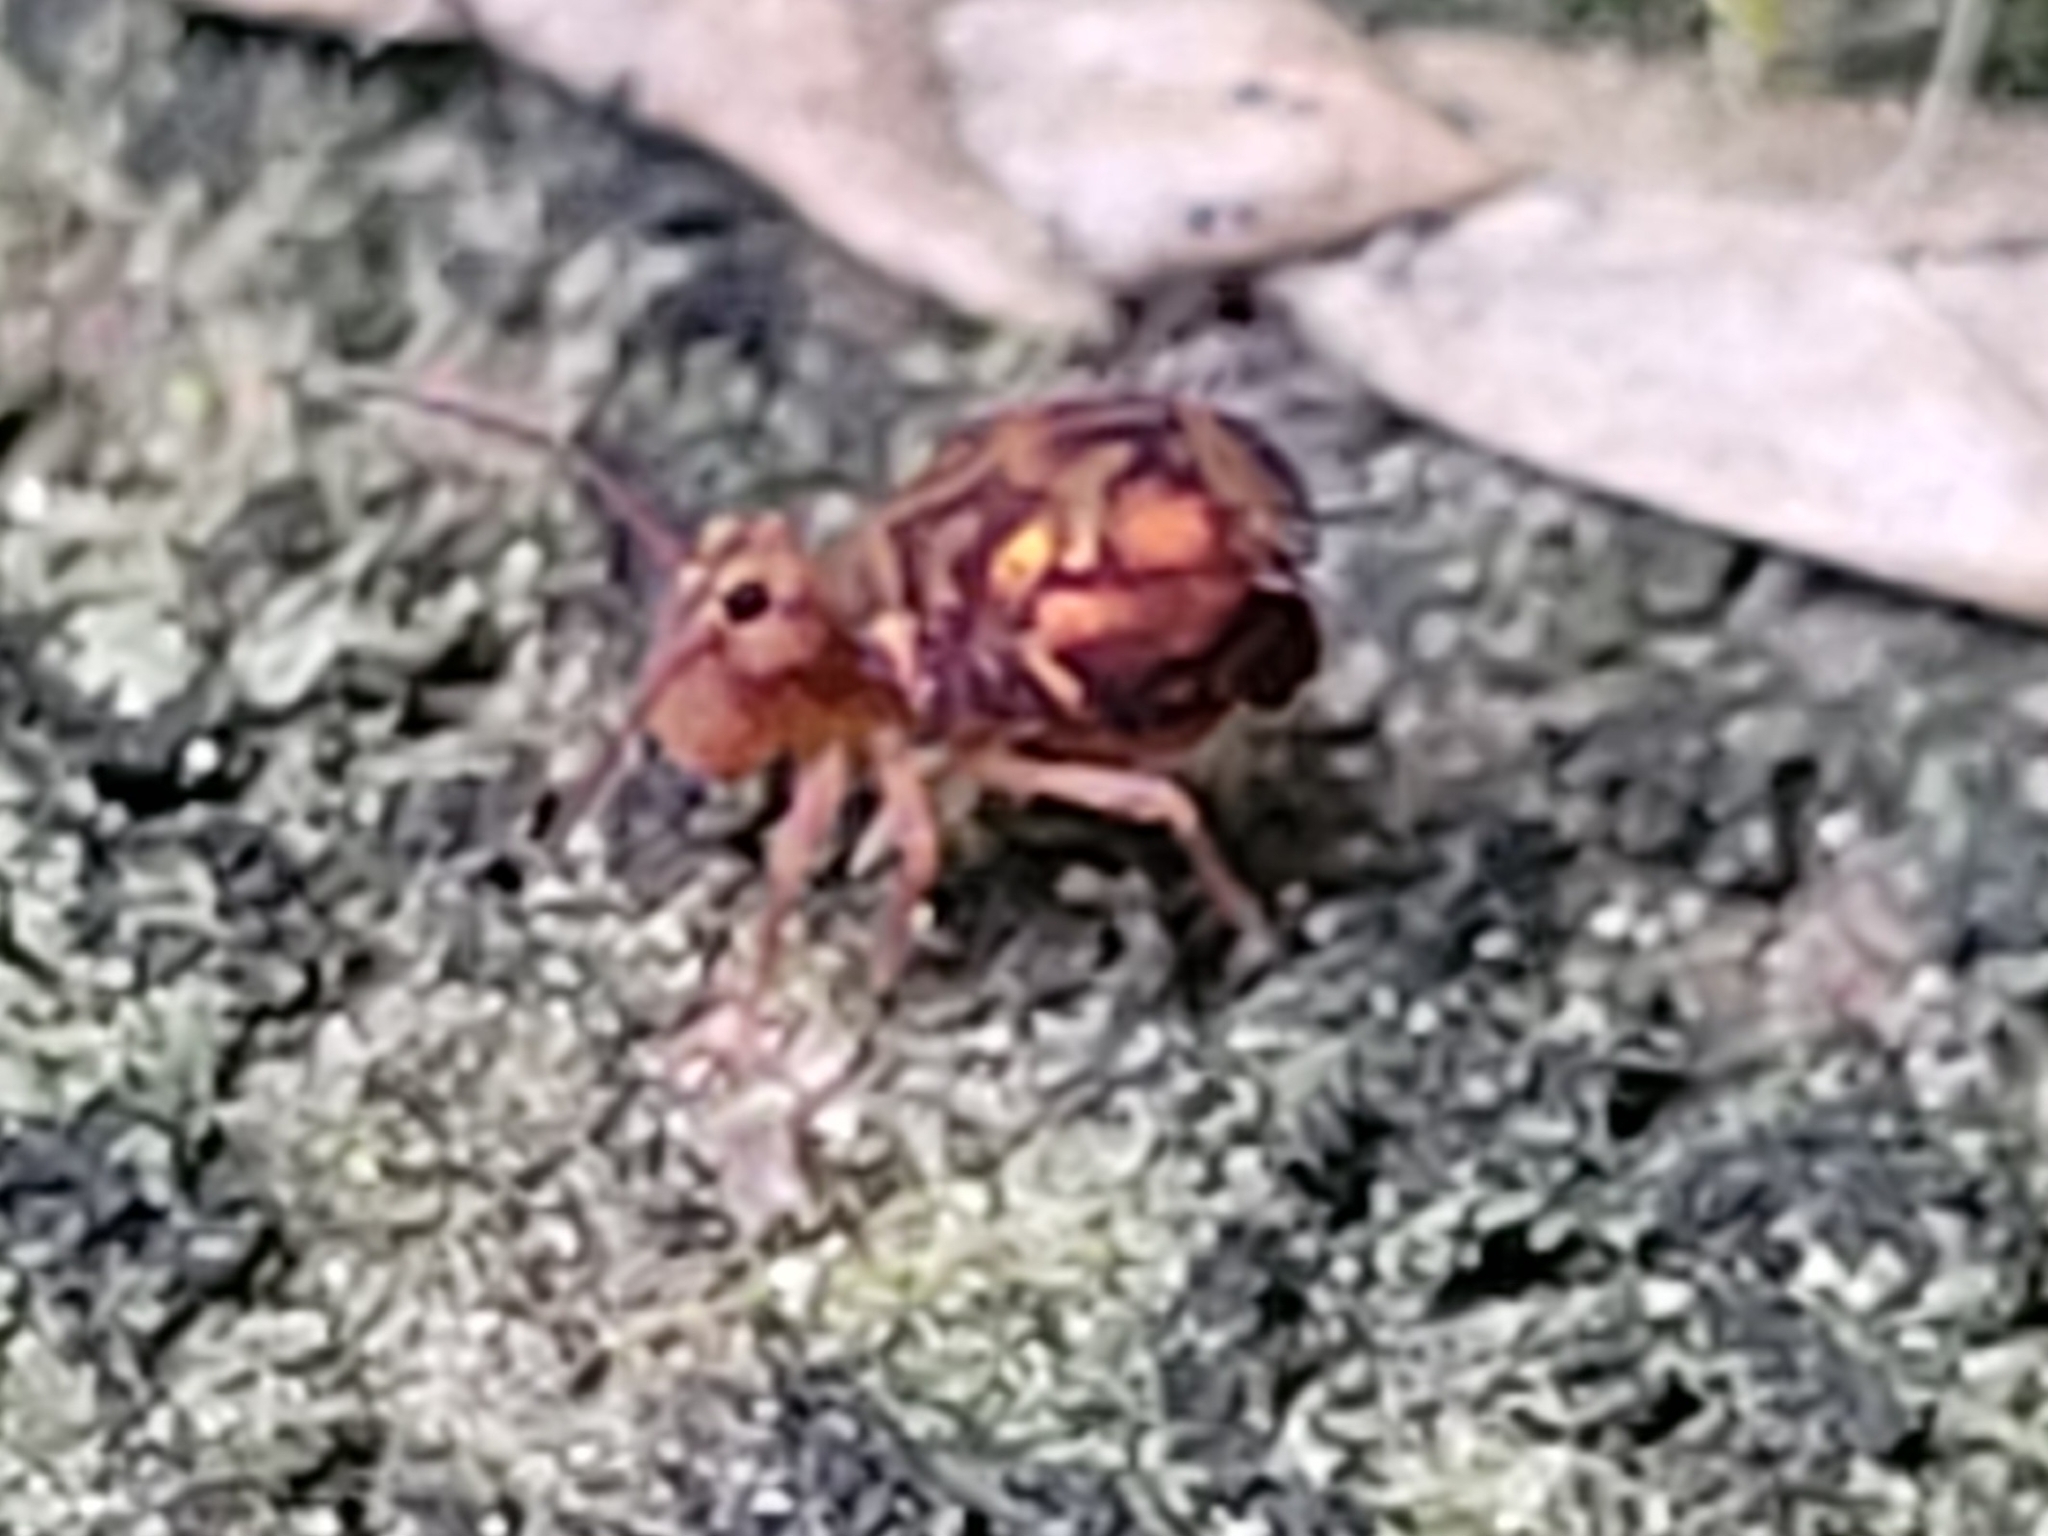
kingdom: Animalia
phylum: Arthropoda
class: Collembola
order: Symphypleona
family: Dicyrtomidae
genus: Dicyrtomina
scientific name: Dicyrtomina ornata
